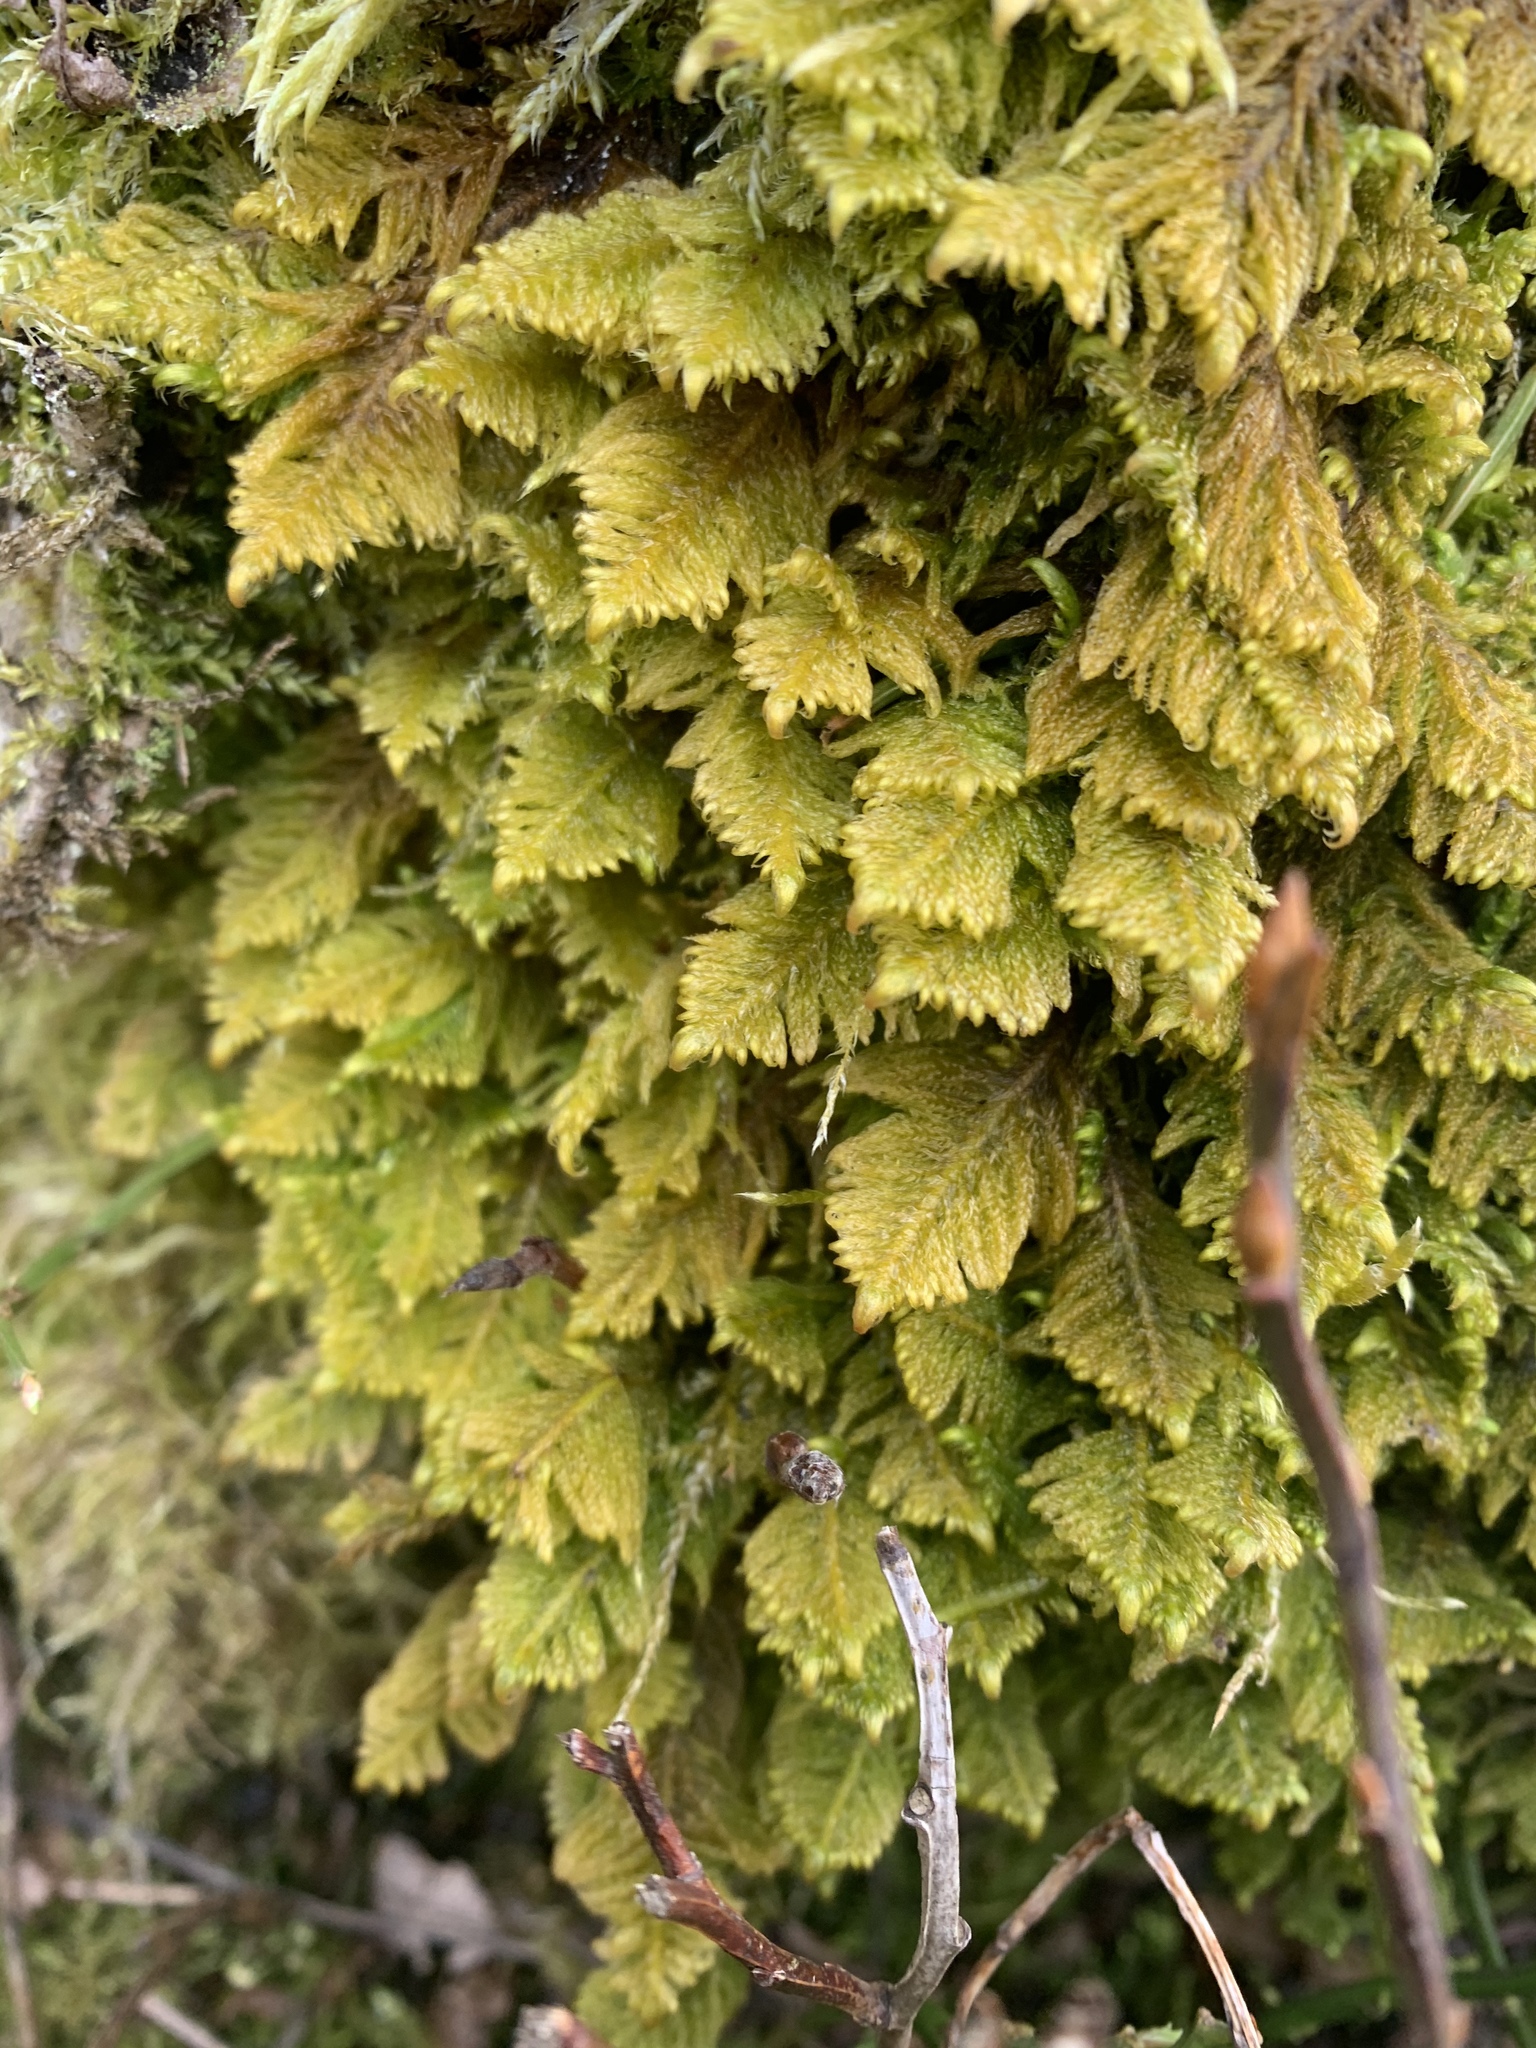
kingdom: Plantae
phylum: Bryophyta
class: Bryopsida
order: Hypnales
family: Pylaisiaceae
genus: Ptilium
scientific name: Ptilium crista-castrensis
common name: Knight's plume moss
